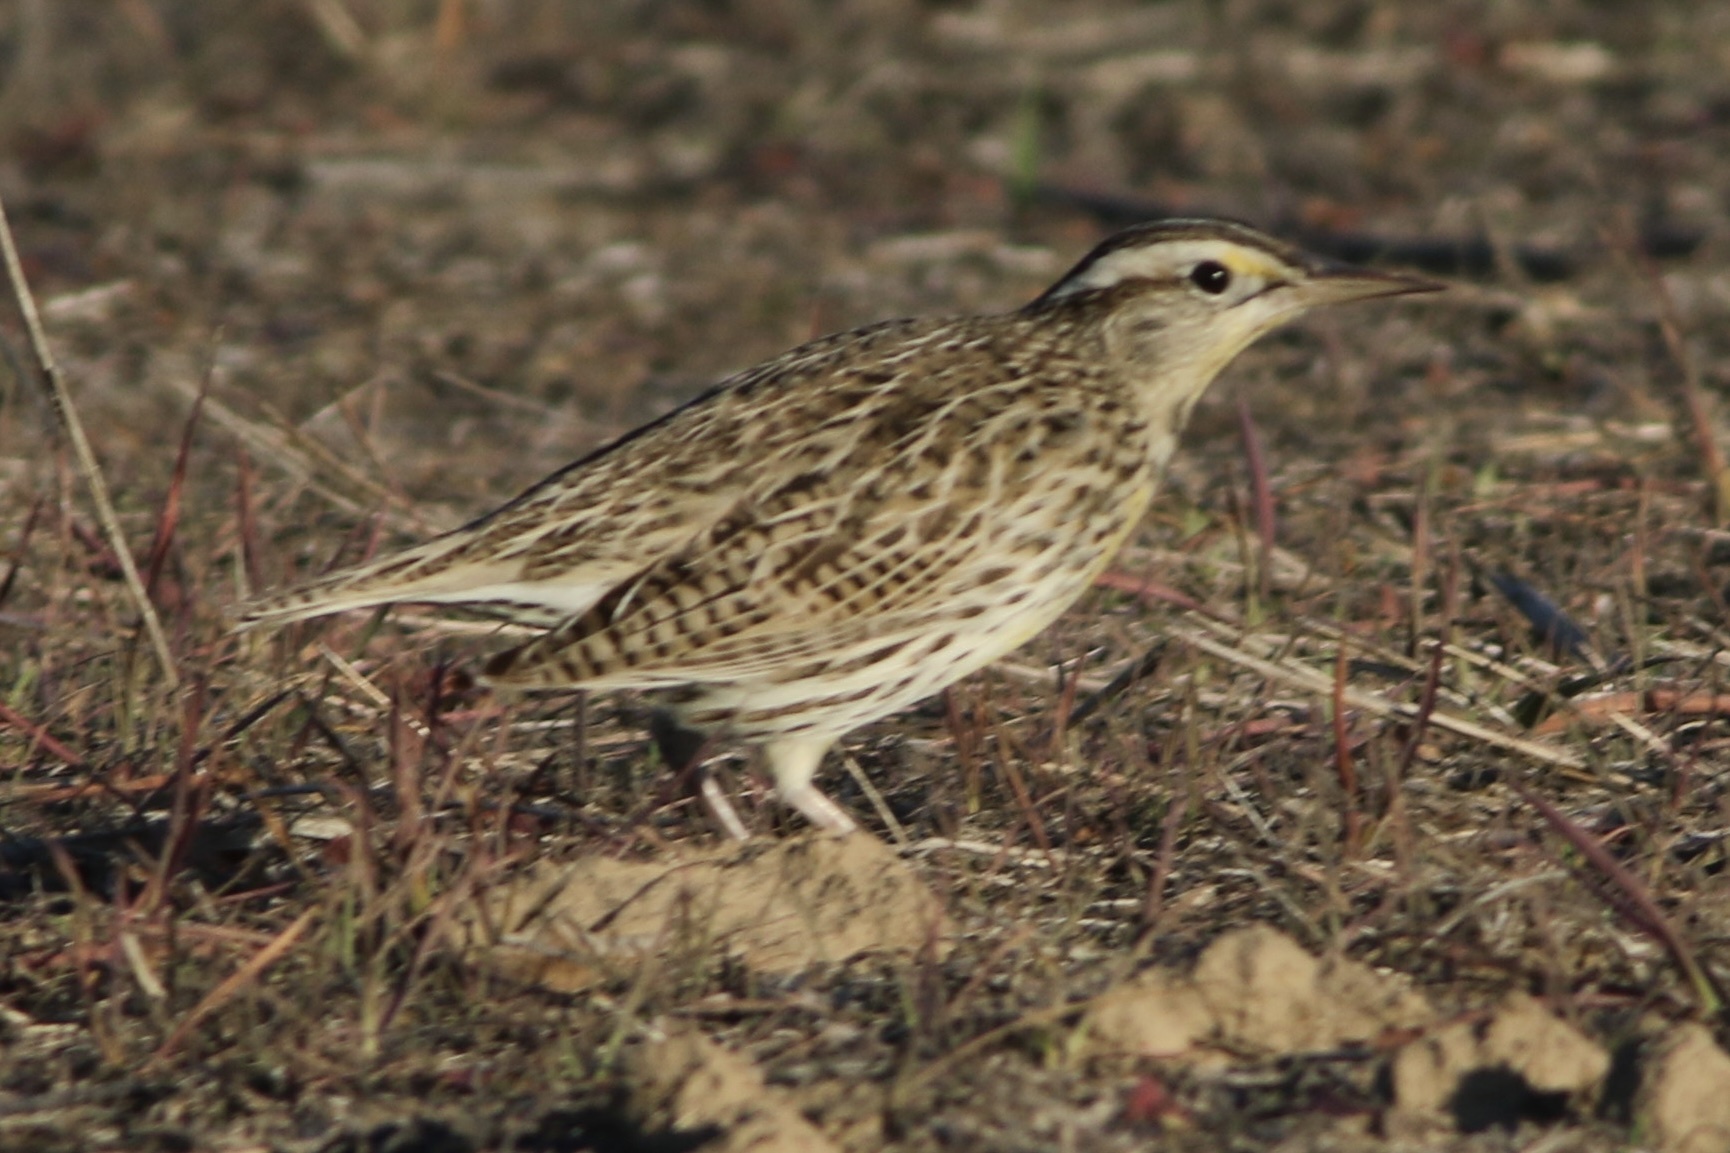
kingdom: Animalia
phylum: Chordata
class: Aves
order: Passeriformes
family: Icteridae
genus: Sturnella
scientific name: Sturnella neglecta
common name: Western meadowlark
